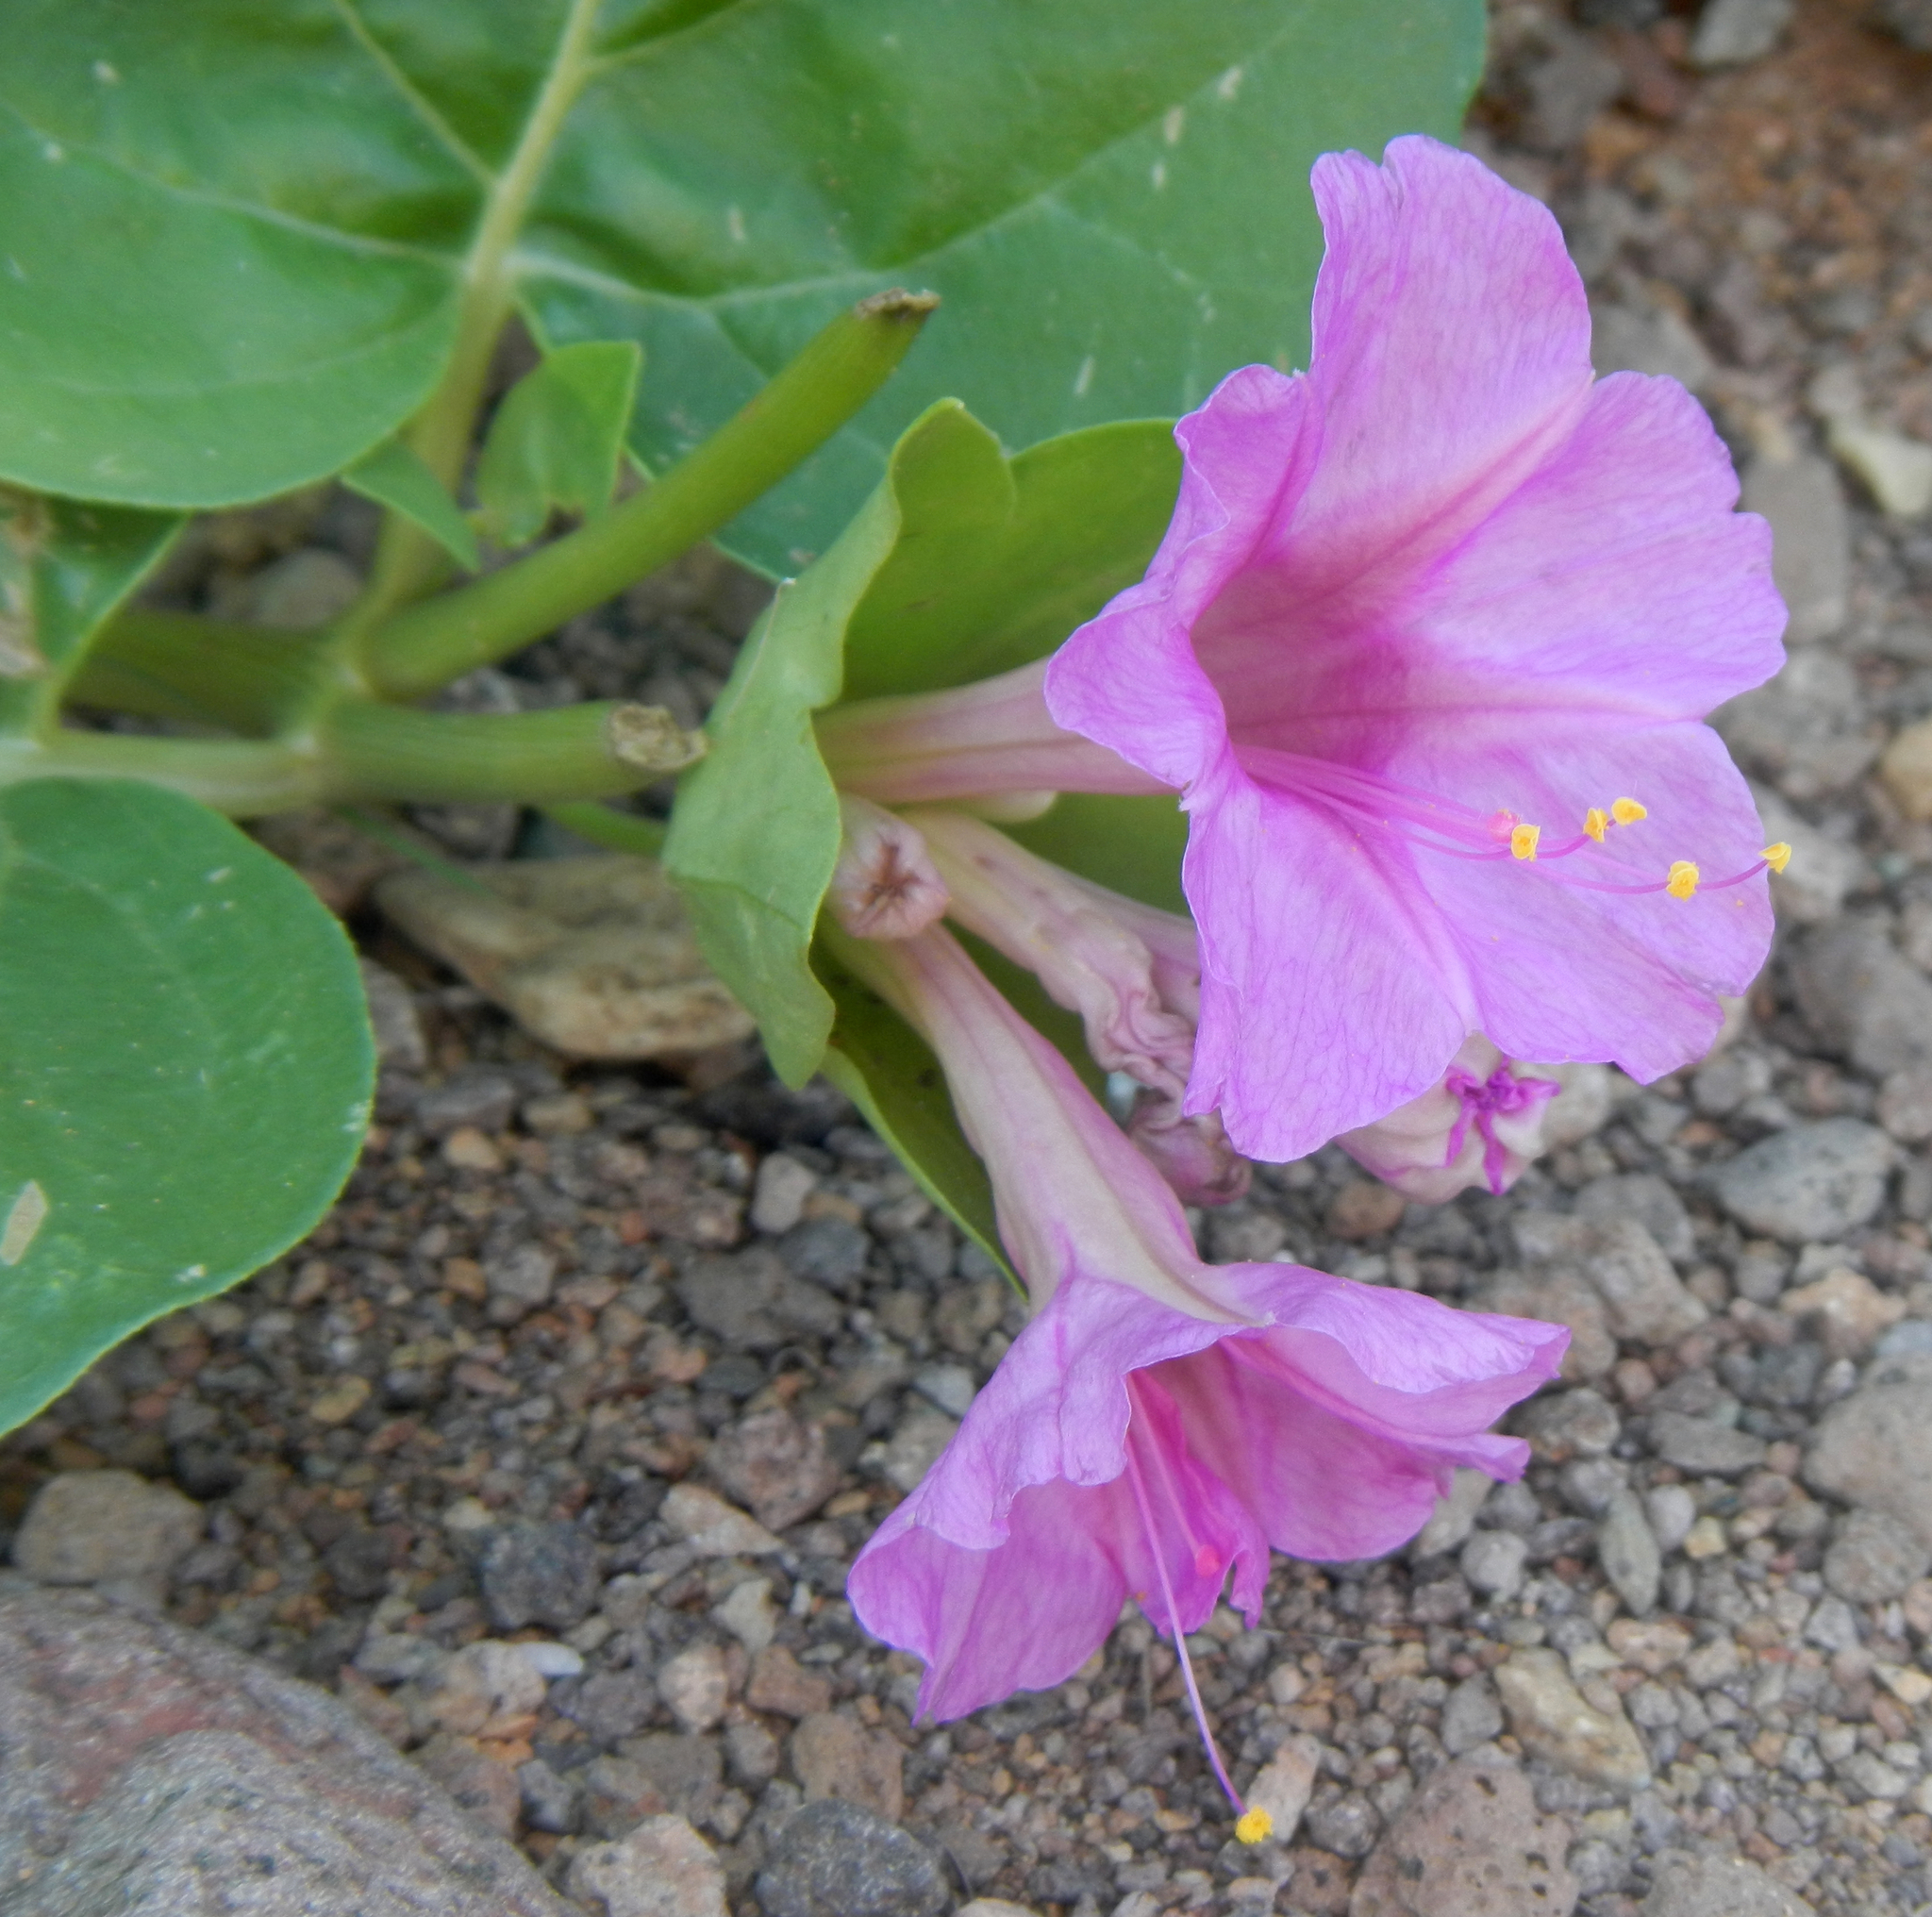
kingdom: Plantae
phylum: Tracheophyta
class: Magnoliopsida
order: Caryophyllales
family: Nyctaginaceae
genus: Mirabilis
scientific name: Mirabilis multiflora
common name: Froebel's four-o'clock
